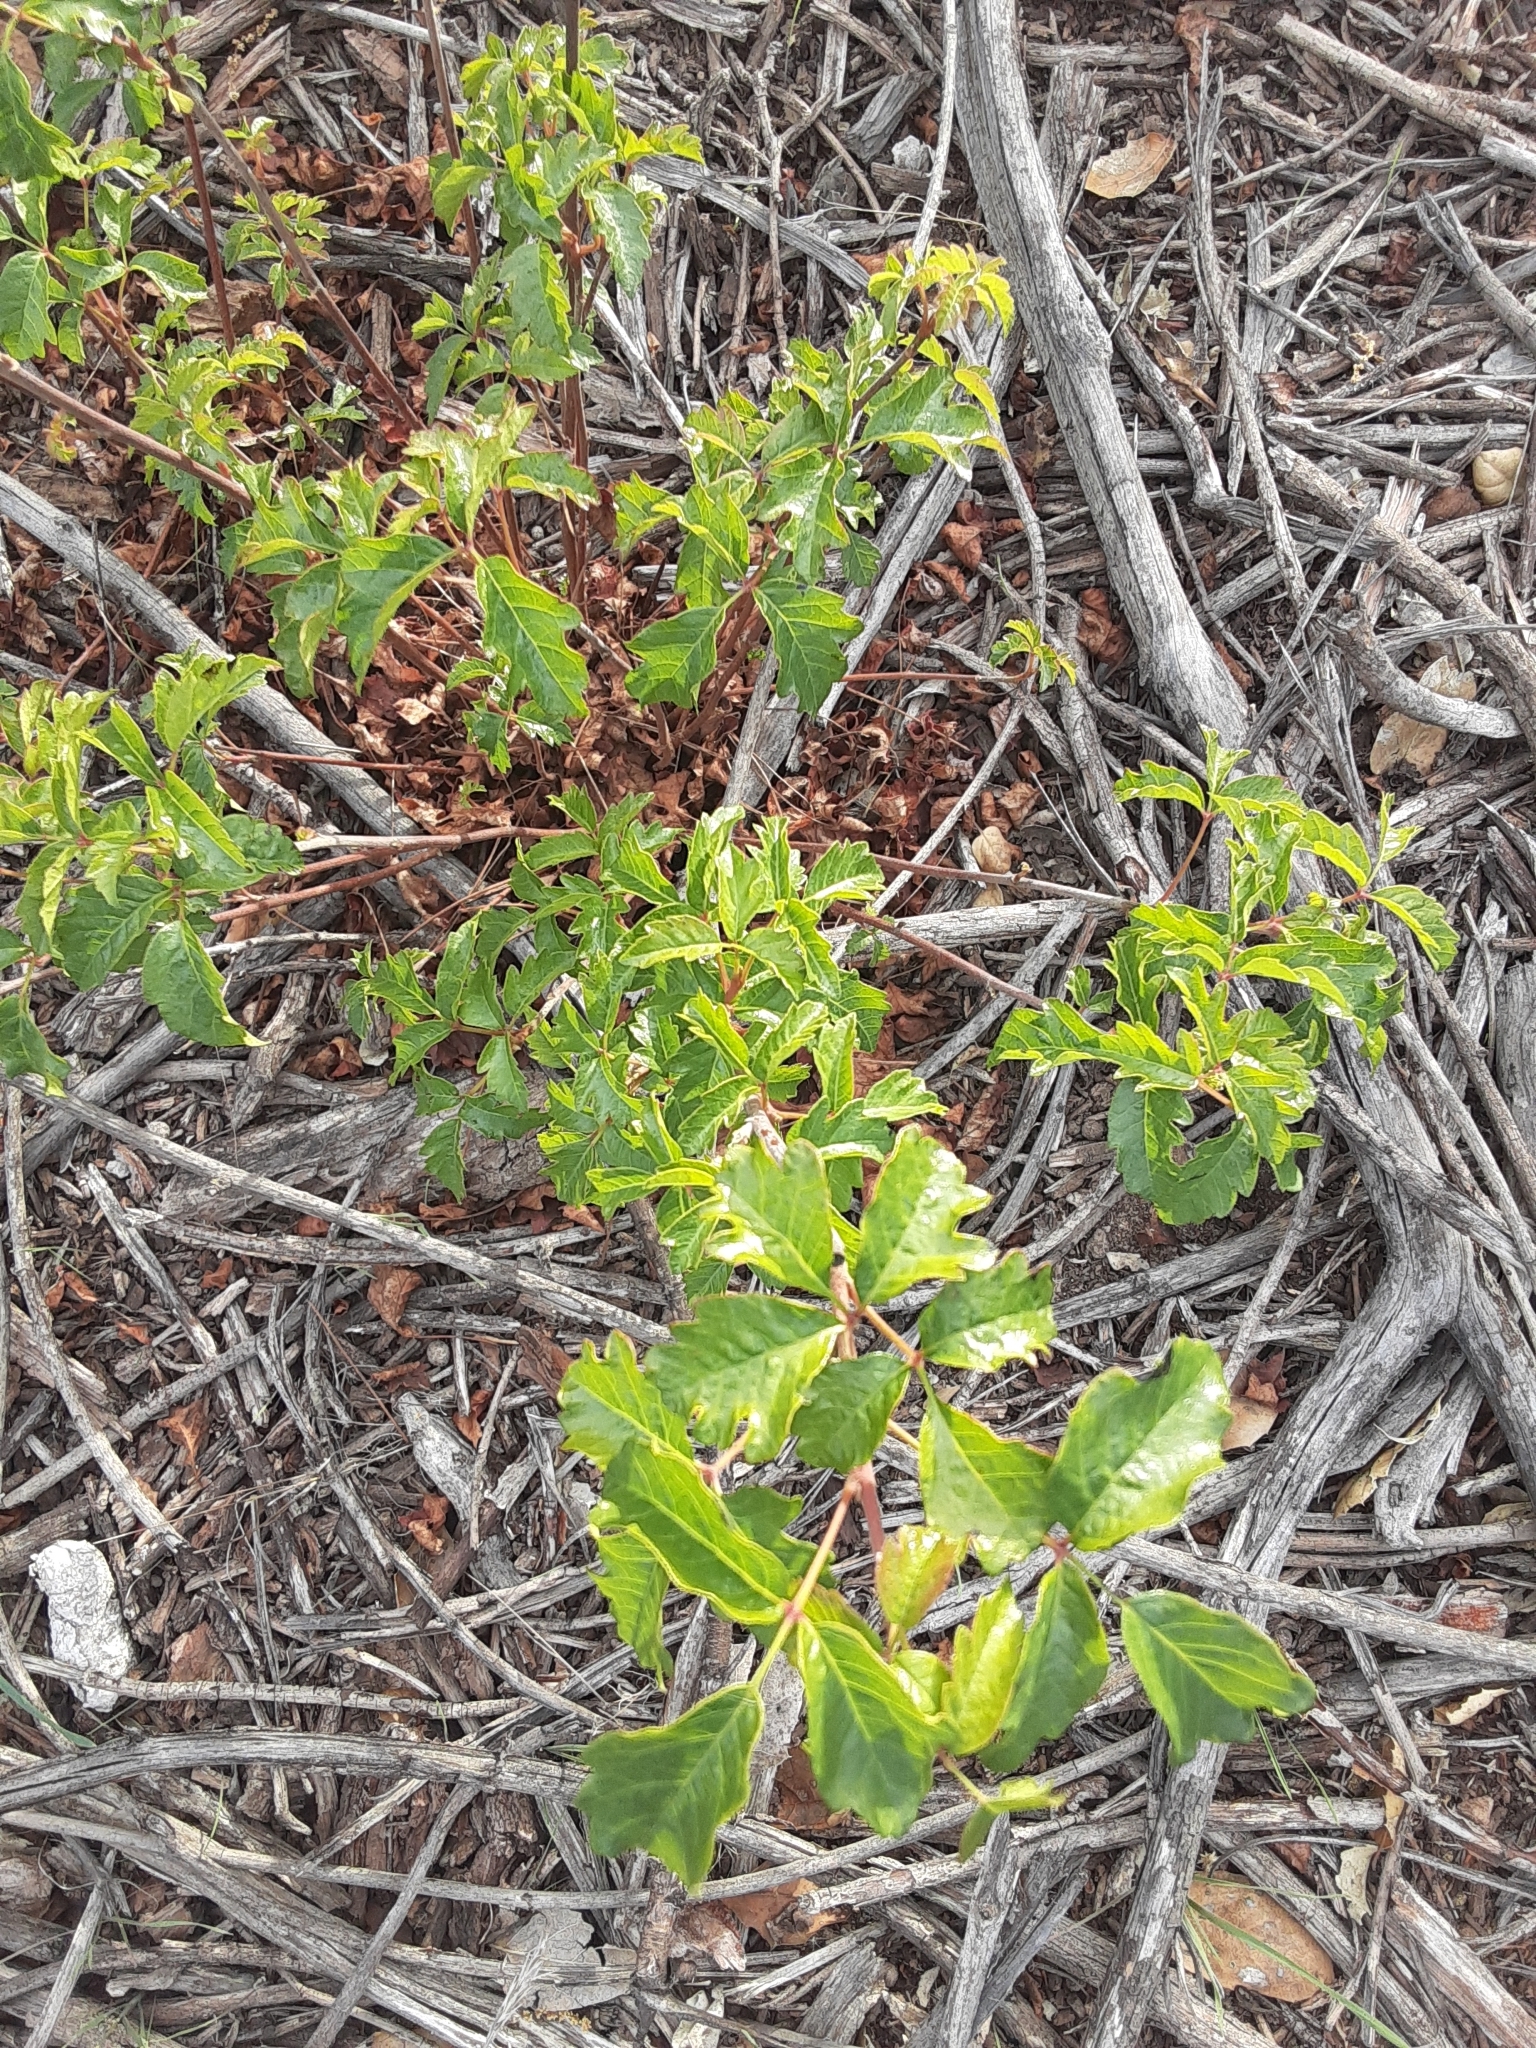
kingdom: Plantae
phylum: Tracheophyta
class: Magnoliopsida
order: Sapindales
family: Anacardiaceae
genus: Toxicodendron
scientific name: Toxicodendron diversilobum
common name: Pacific poison-oak
